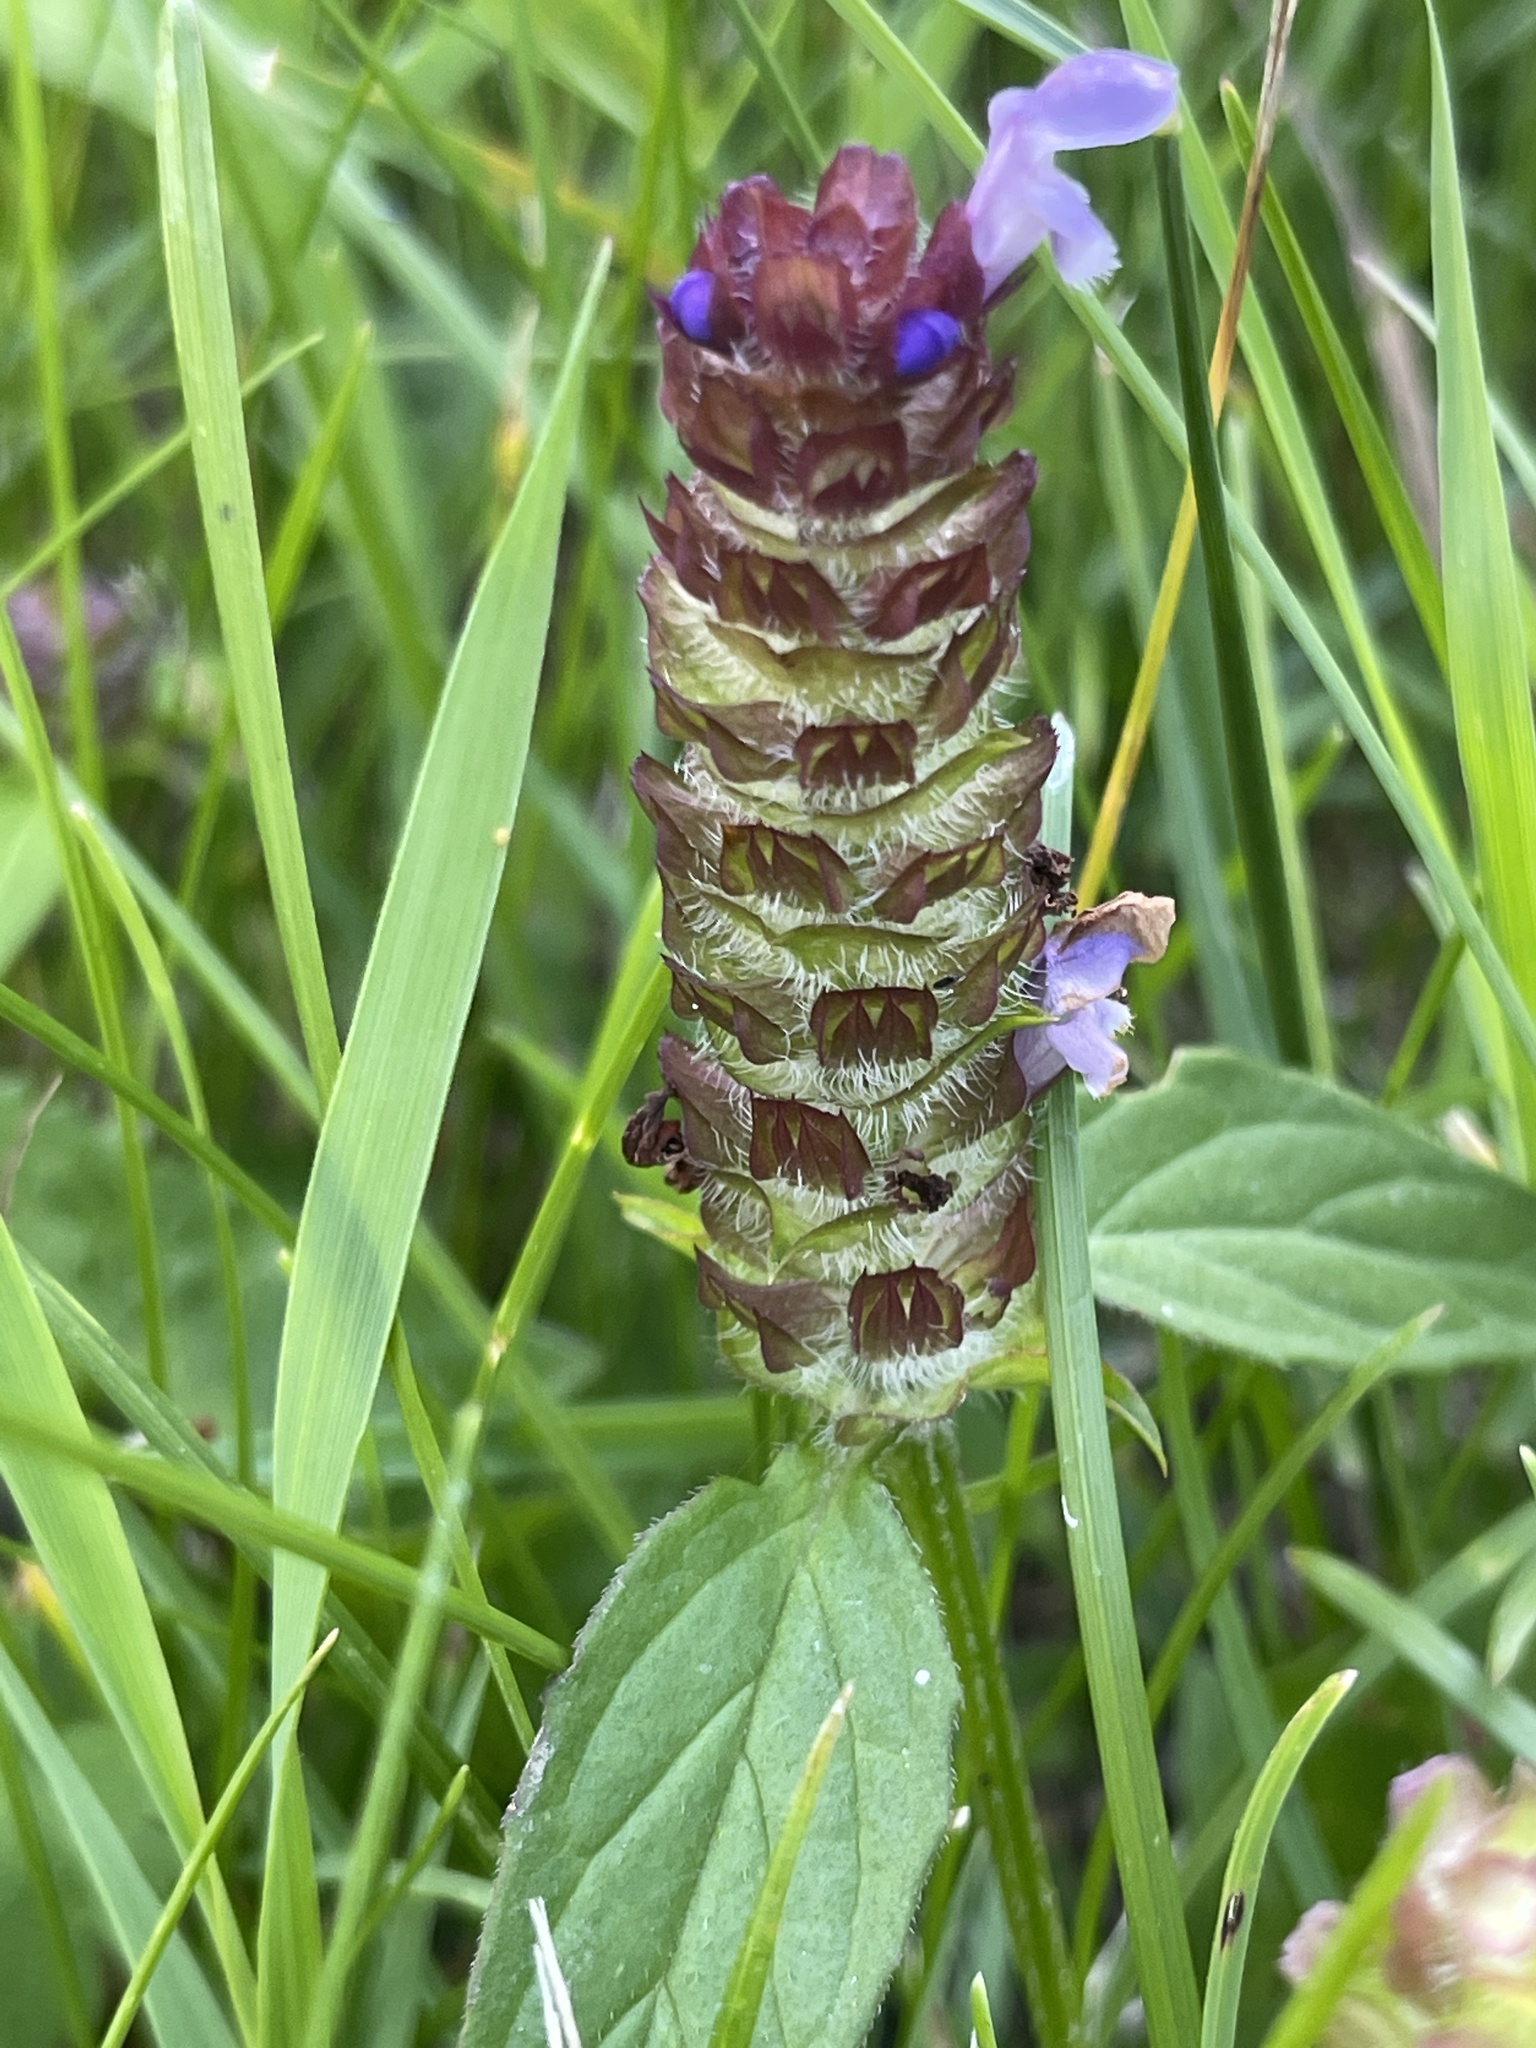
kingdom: Plantae
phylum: Tracheophyta
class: Magnoliopsida
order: Lamiales
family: Lamiaceae
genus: Prunella
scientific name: Prunella vulgaris
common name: Heal-all
